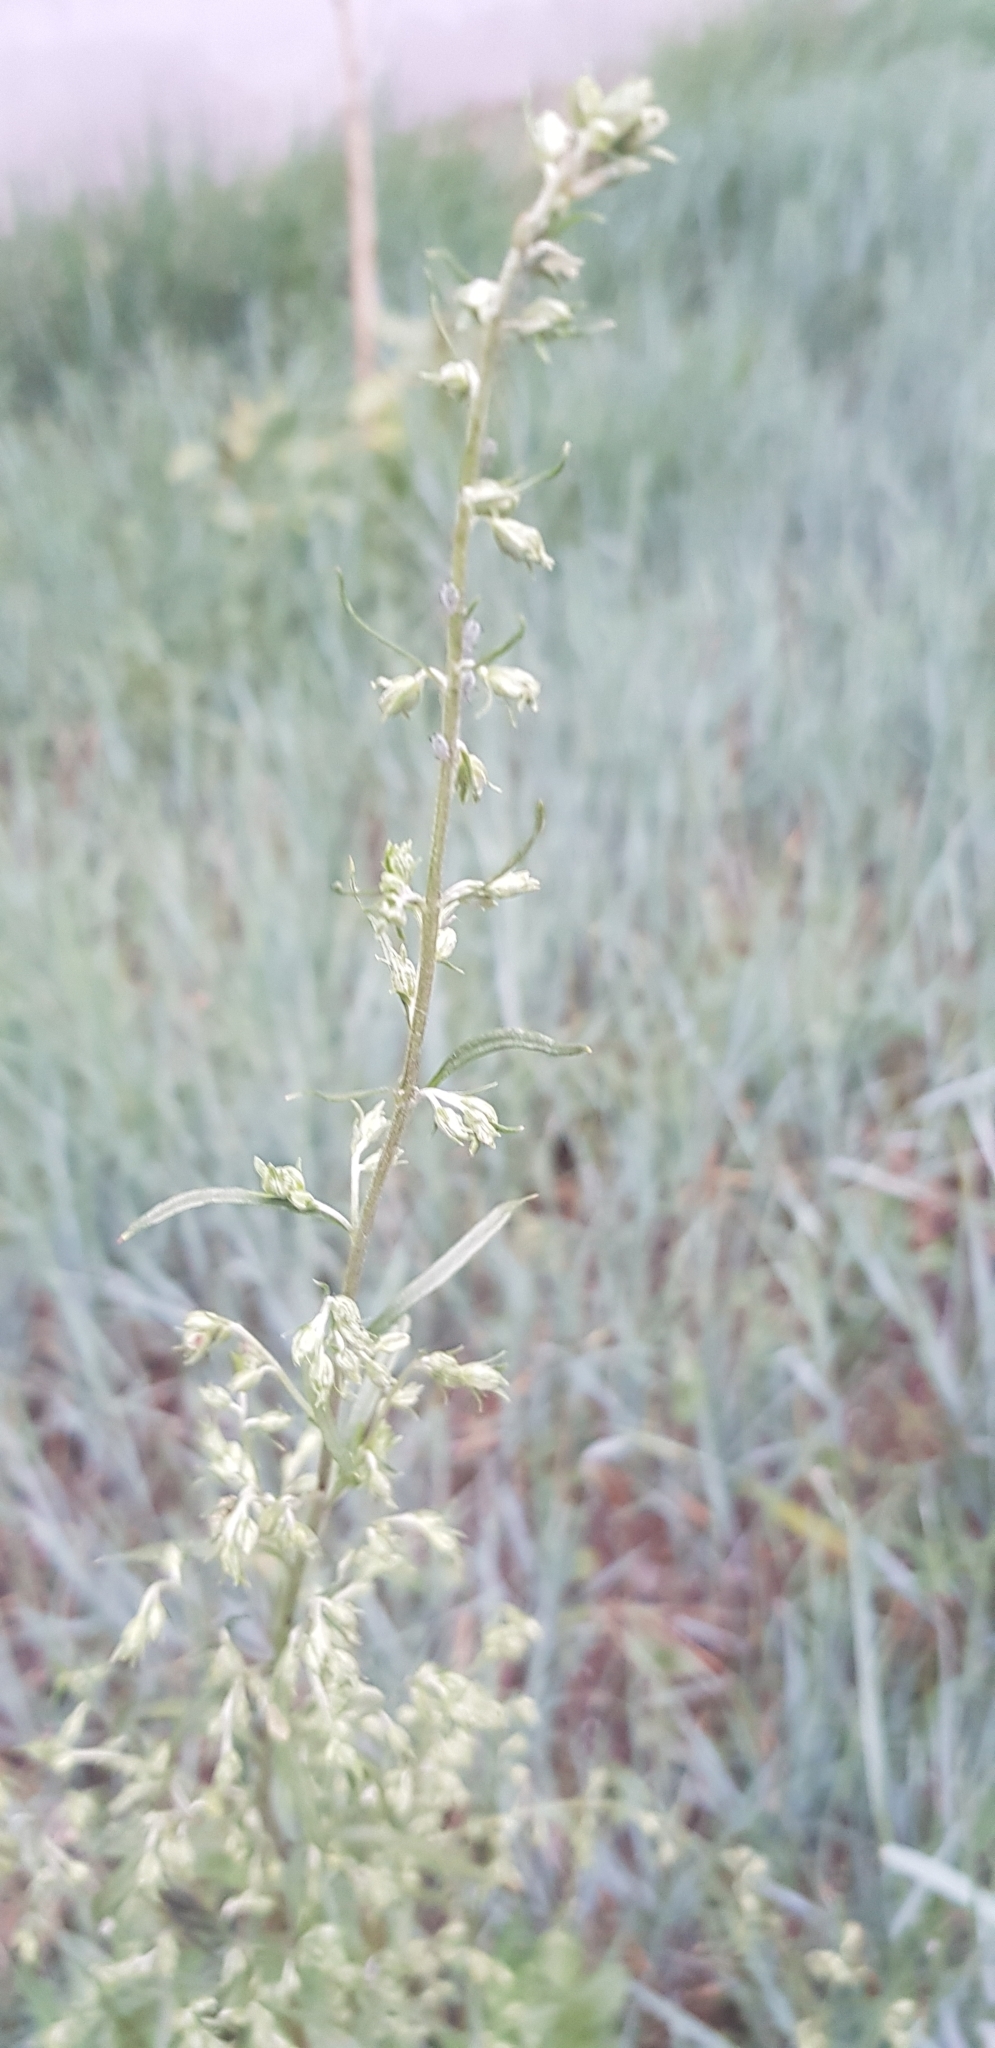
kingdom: Plantae
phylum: Tracheophyta
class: Magnoliopsida
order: Asterales
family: Asteraceae
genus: Artemisia
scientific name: Artemisia sieversiana
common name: Sieversian wormwood
